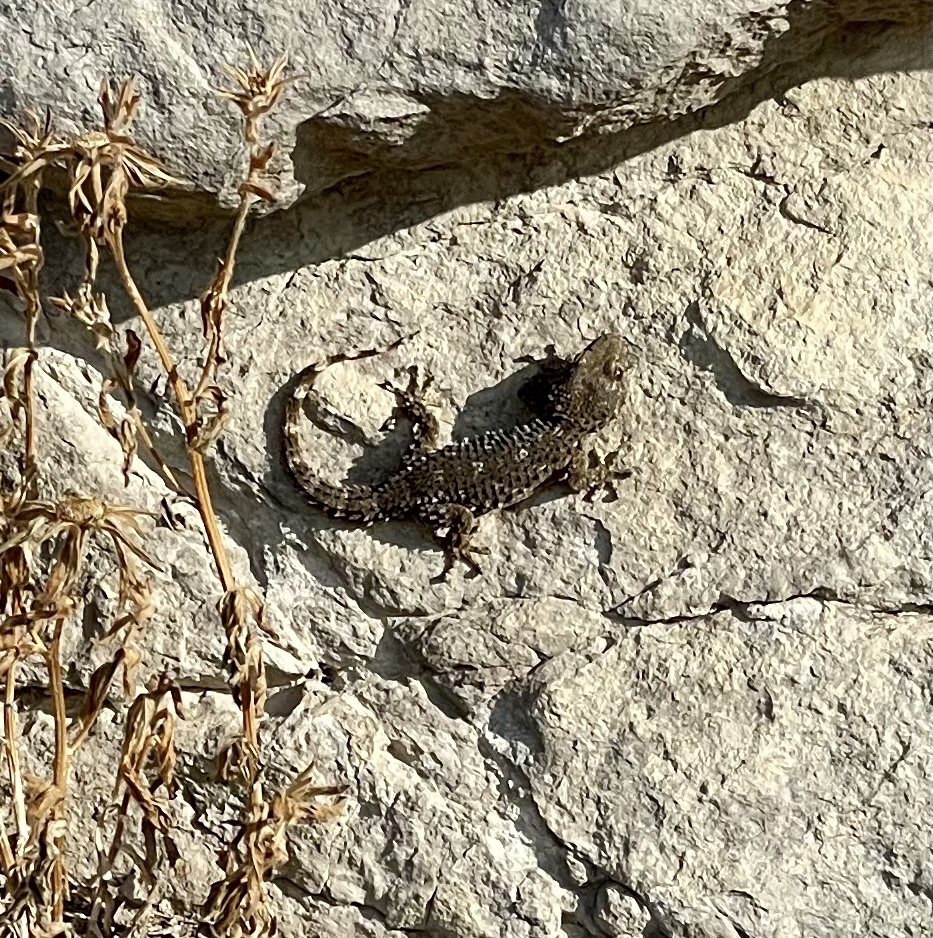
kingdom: Animalia
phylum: Chordata
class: Squamata
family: Phyllodactylidae
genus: Tarentola
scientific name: Tarentola mauritanica
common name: Moorish gecko
